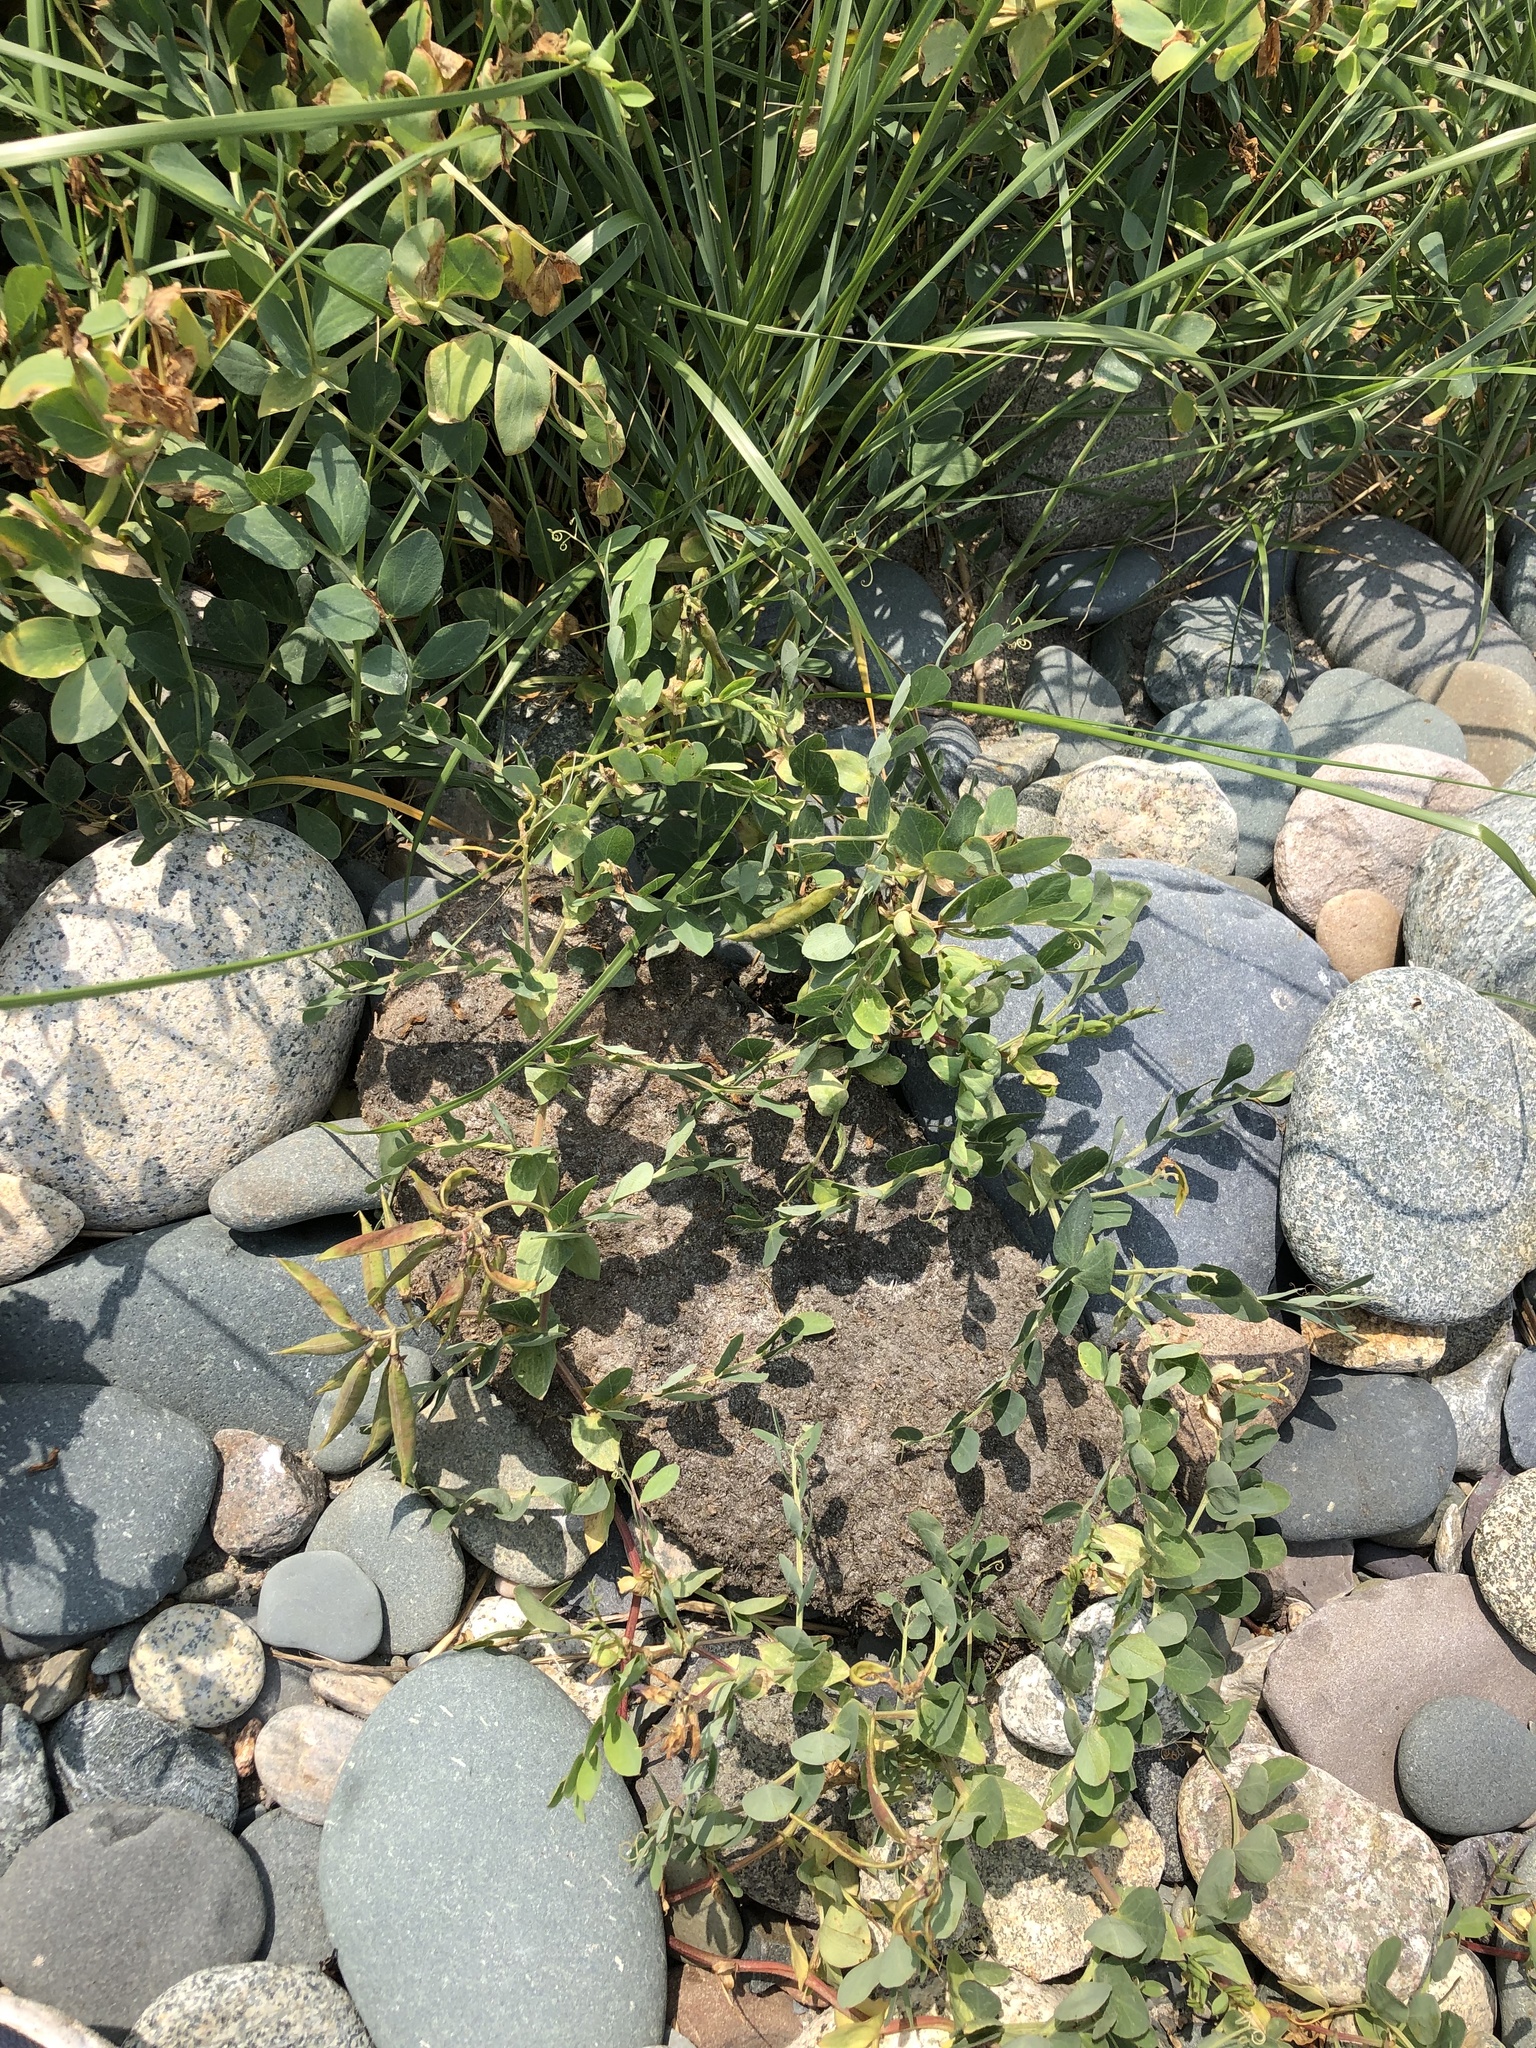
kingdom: Plantae
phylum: Tracheophyta
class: Magnoliopsida
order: Fabales
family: Fabaceae
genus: Lathyrus
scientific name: Lathyrus japonicus
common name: Sea pea
